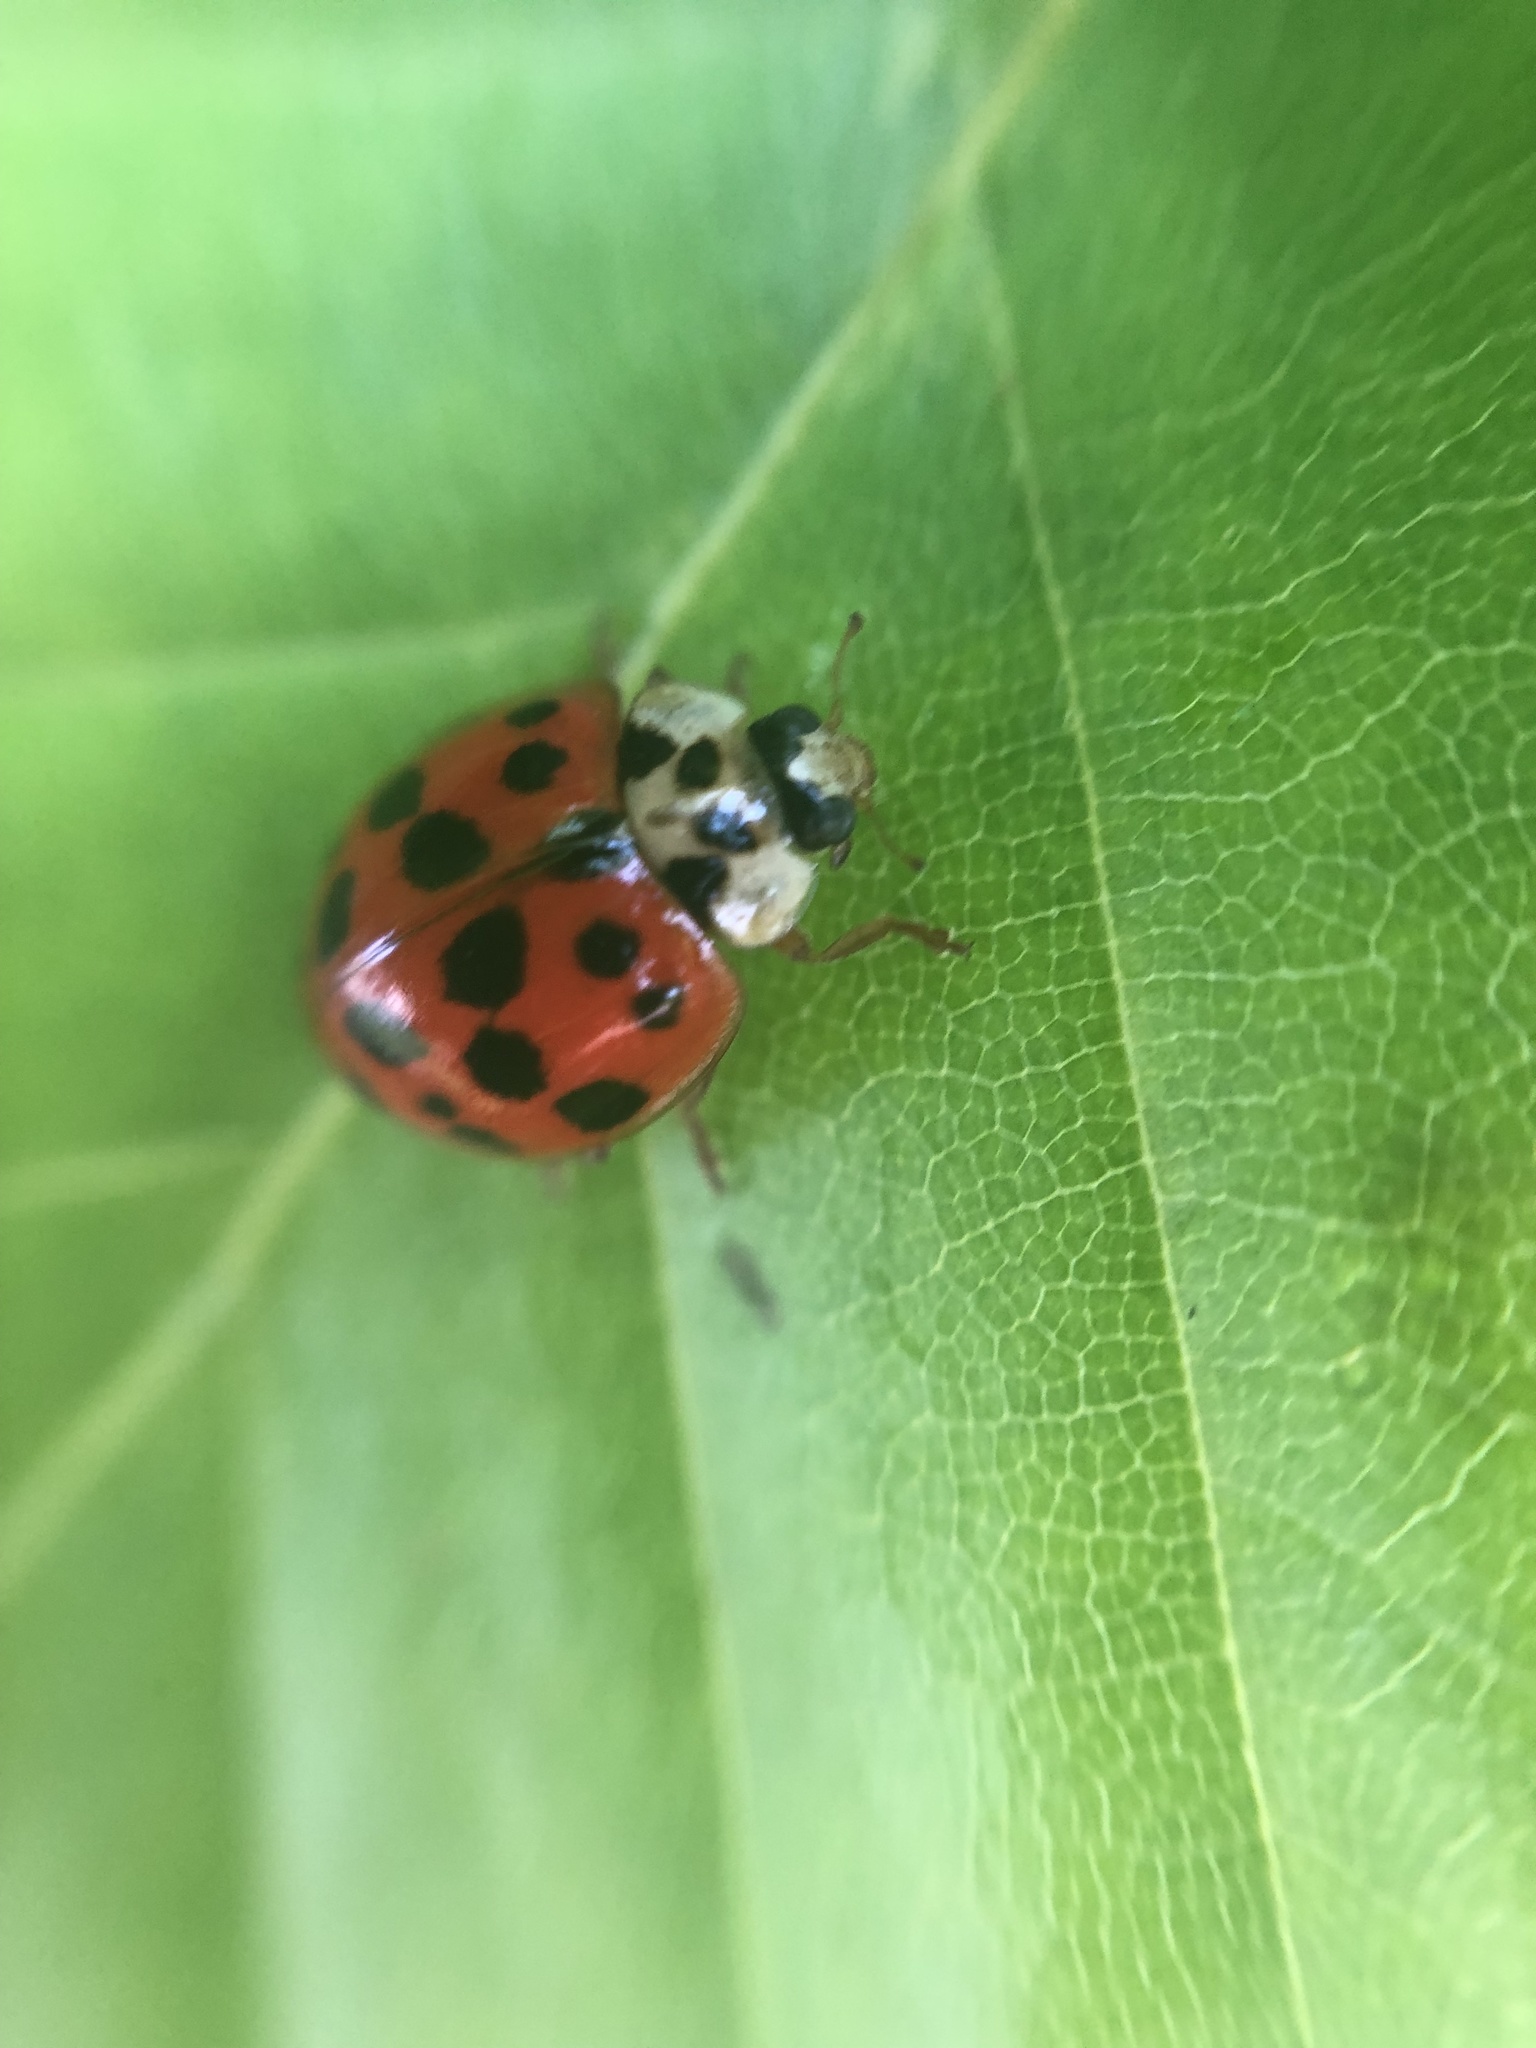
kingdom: Animalia
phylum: Arthropoda
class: Insecta
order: Coleoptera
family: Coccinellidae
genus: Harmonia
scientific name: Harmonia axyridis
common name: Harlequin ladybird
